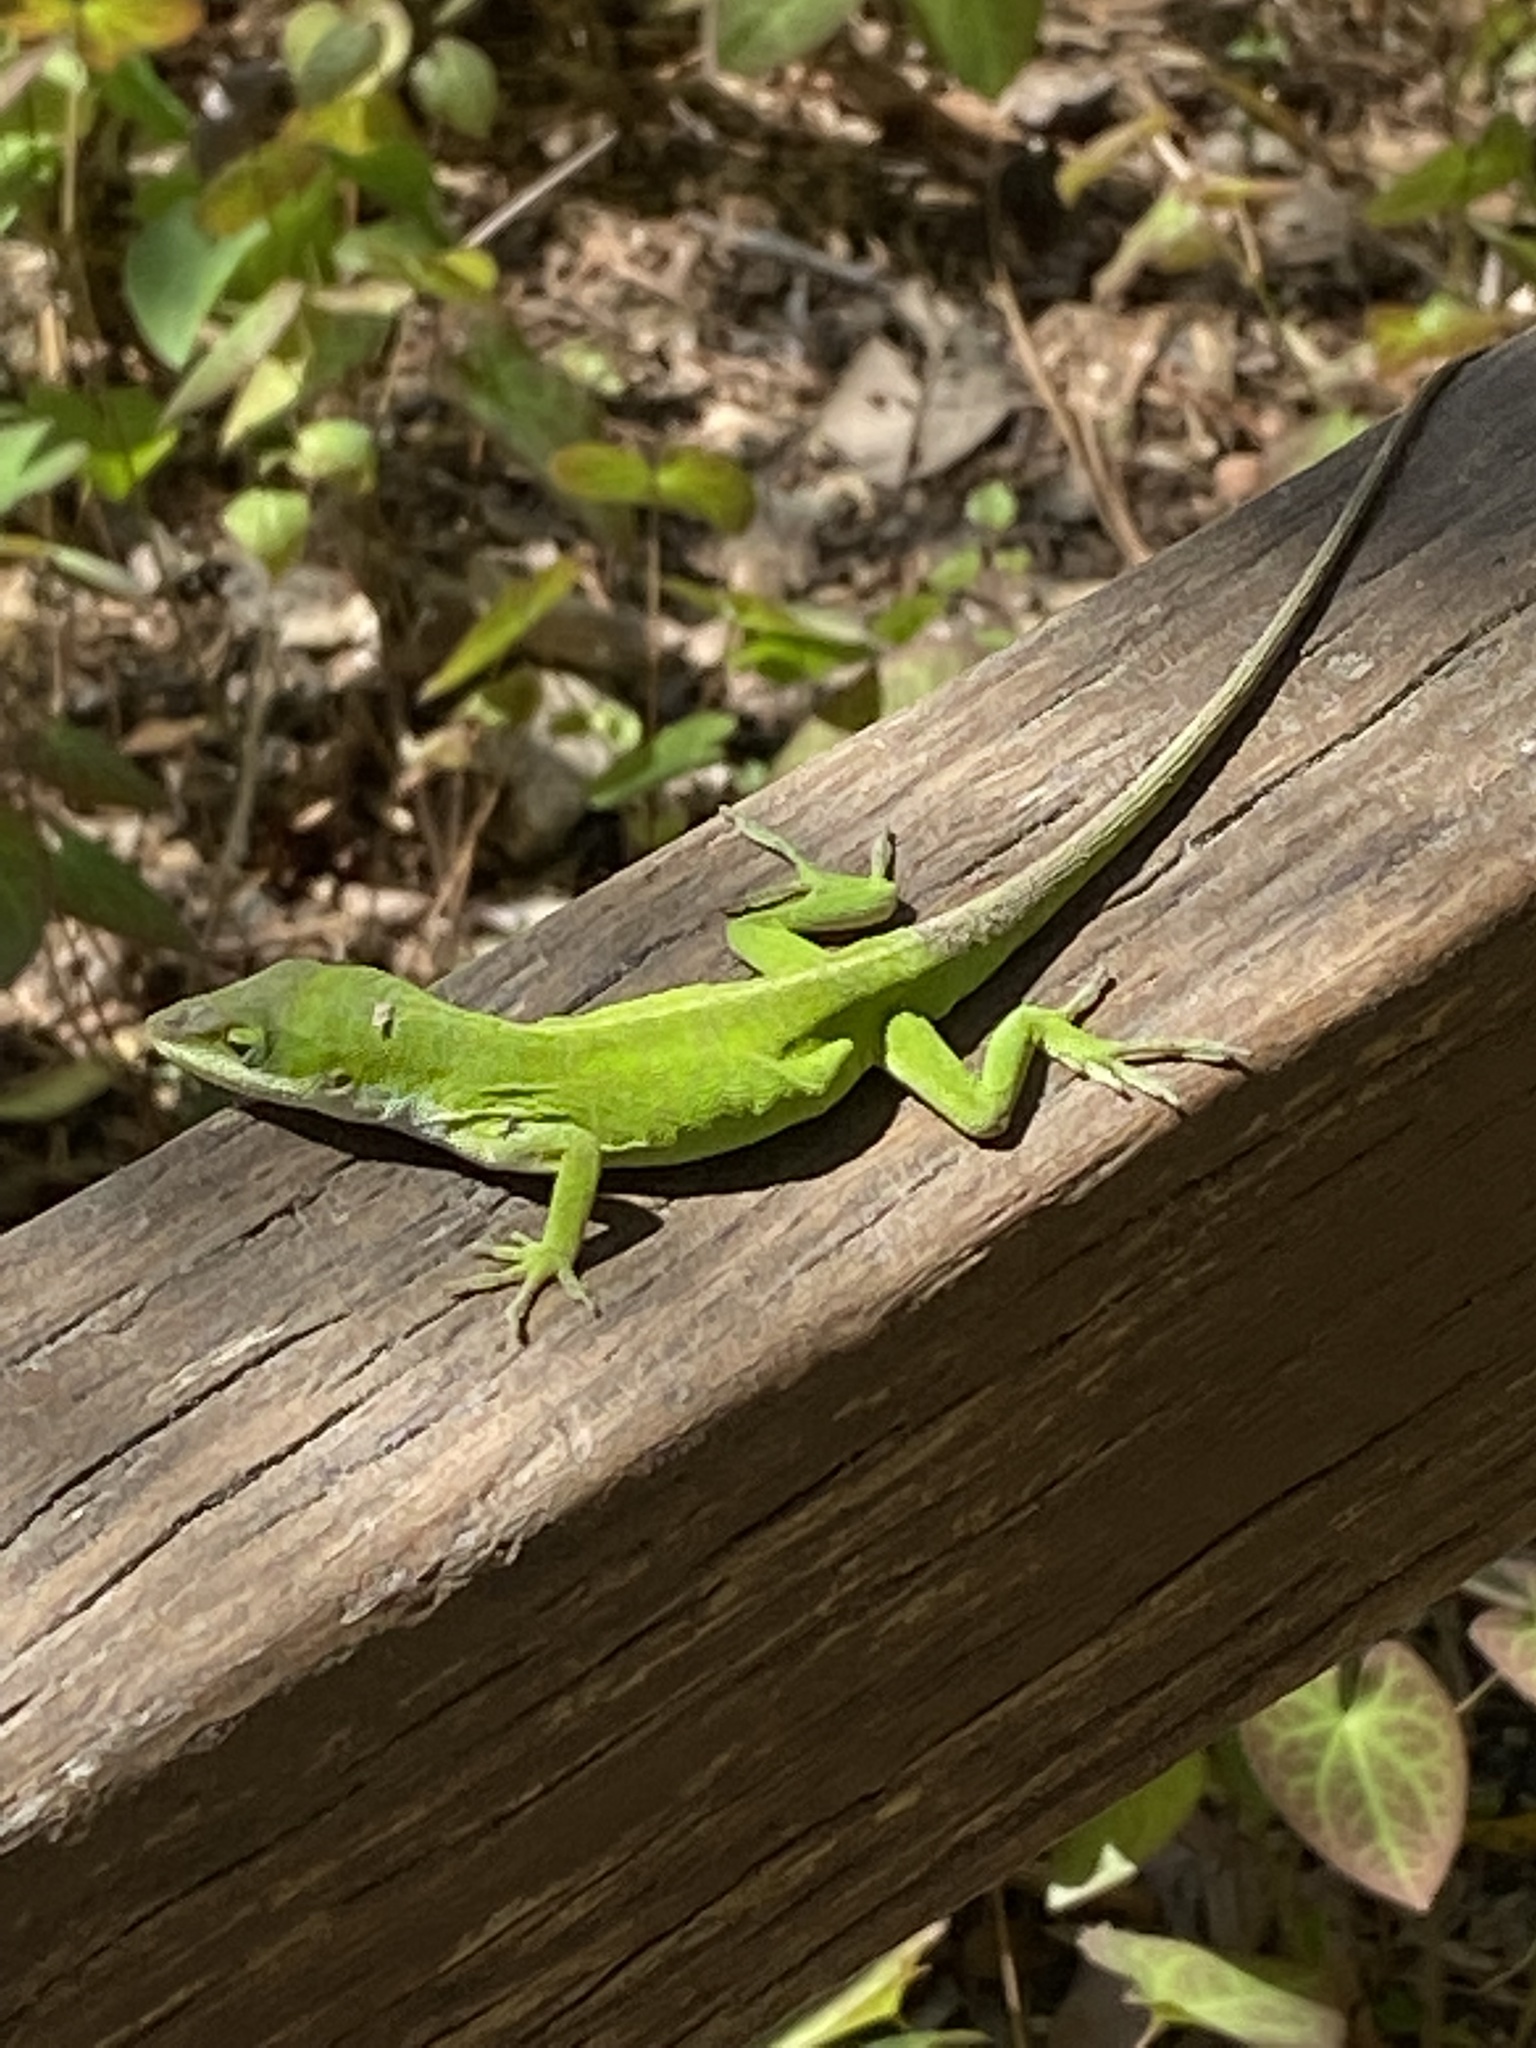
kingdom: Animalia
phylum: Chordata
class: Squamata
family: Dactyloidae
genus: Anolis
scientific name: Anolis carolinensis
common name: Green anole
